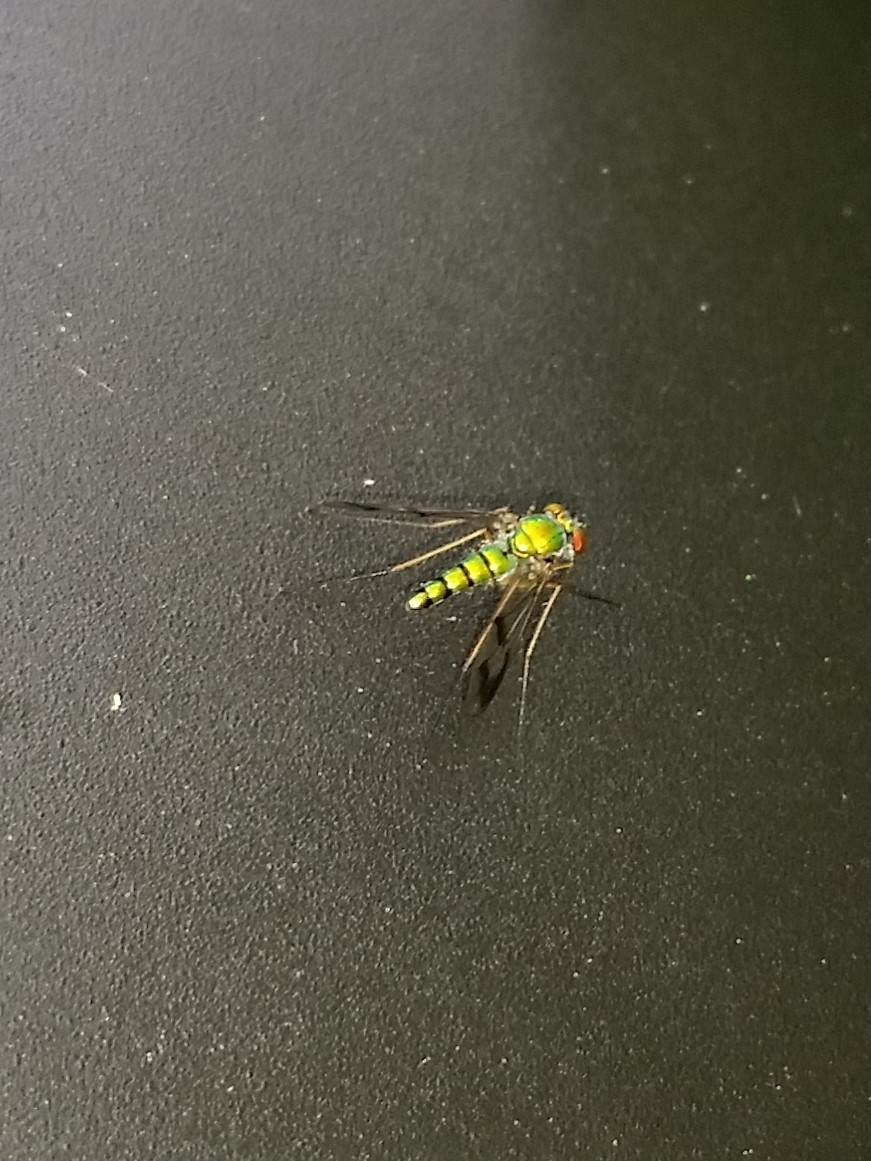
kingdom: Animalia
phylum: Arthropoda
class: Insecta
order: Diptera
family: Dolichopodidae
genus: Condylostylus
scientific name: Condylostylus
